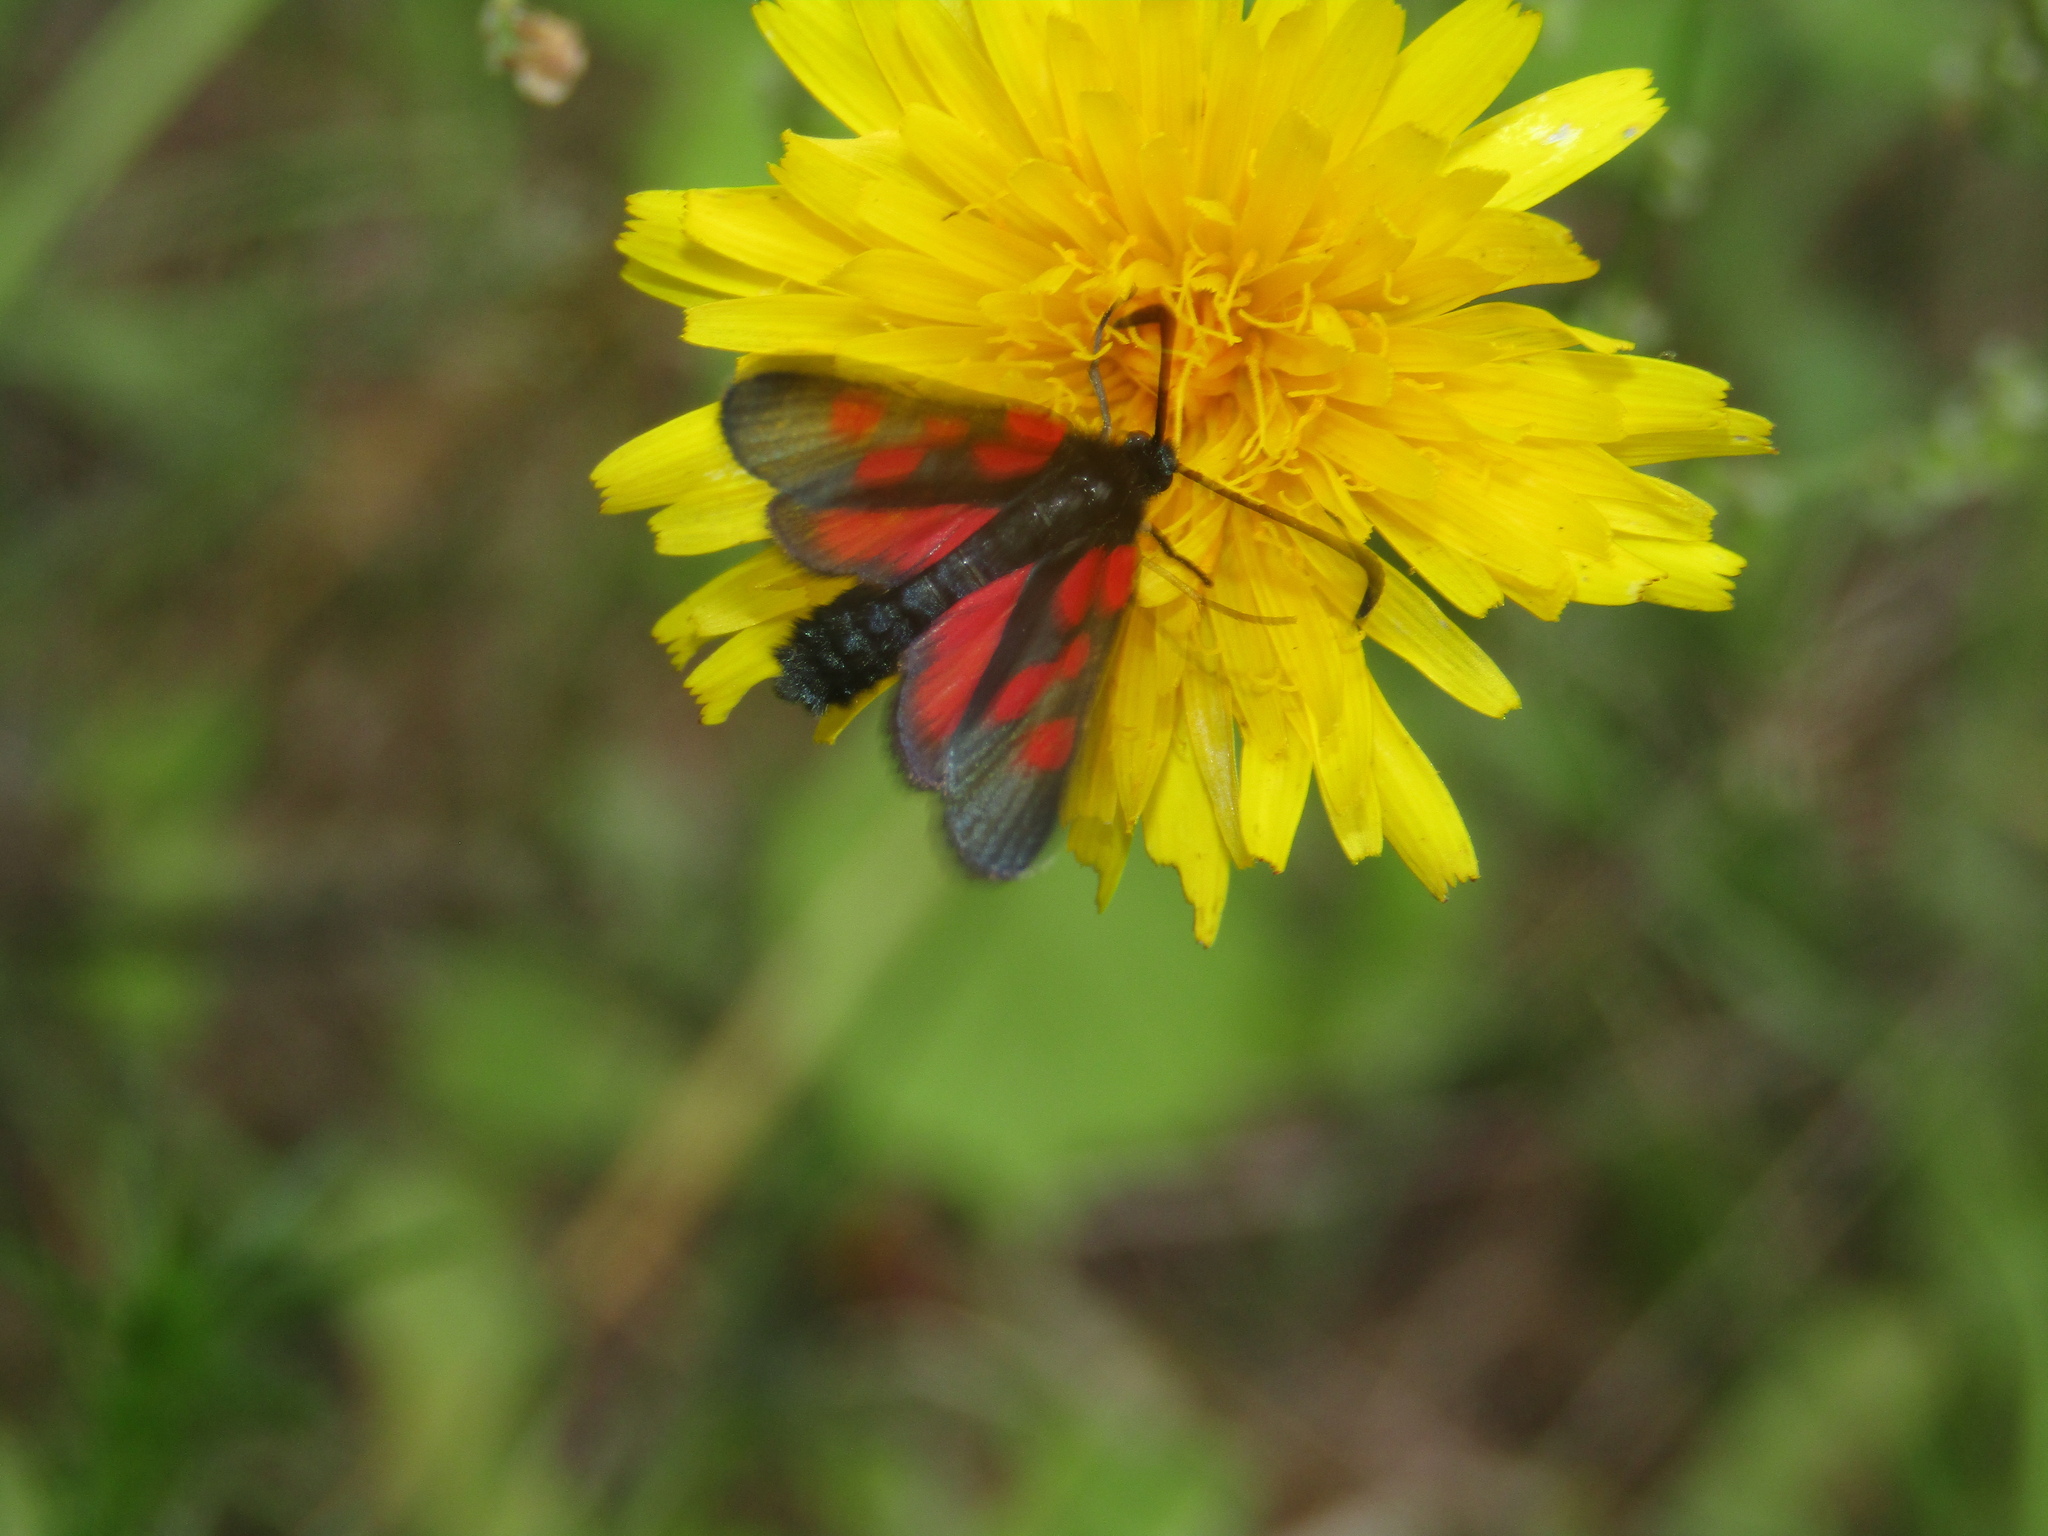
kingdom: Animalia
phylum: Arthropoda
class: Insecta
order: Lepidoptera
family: Zygaenidae
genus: Zygaena
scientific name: Zygaena viciae
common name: New forest burnet
